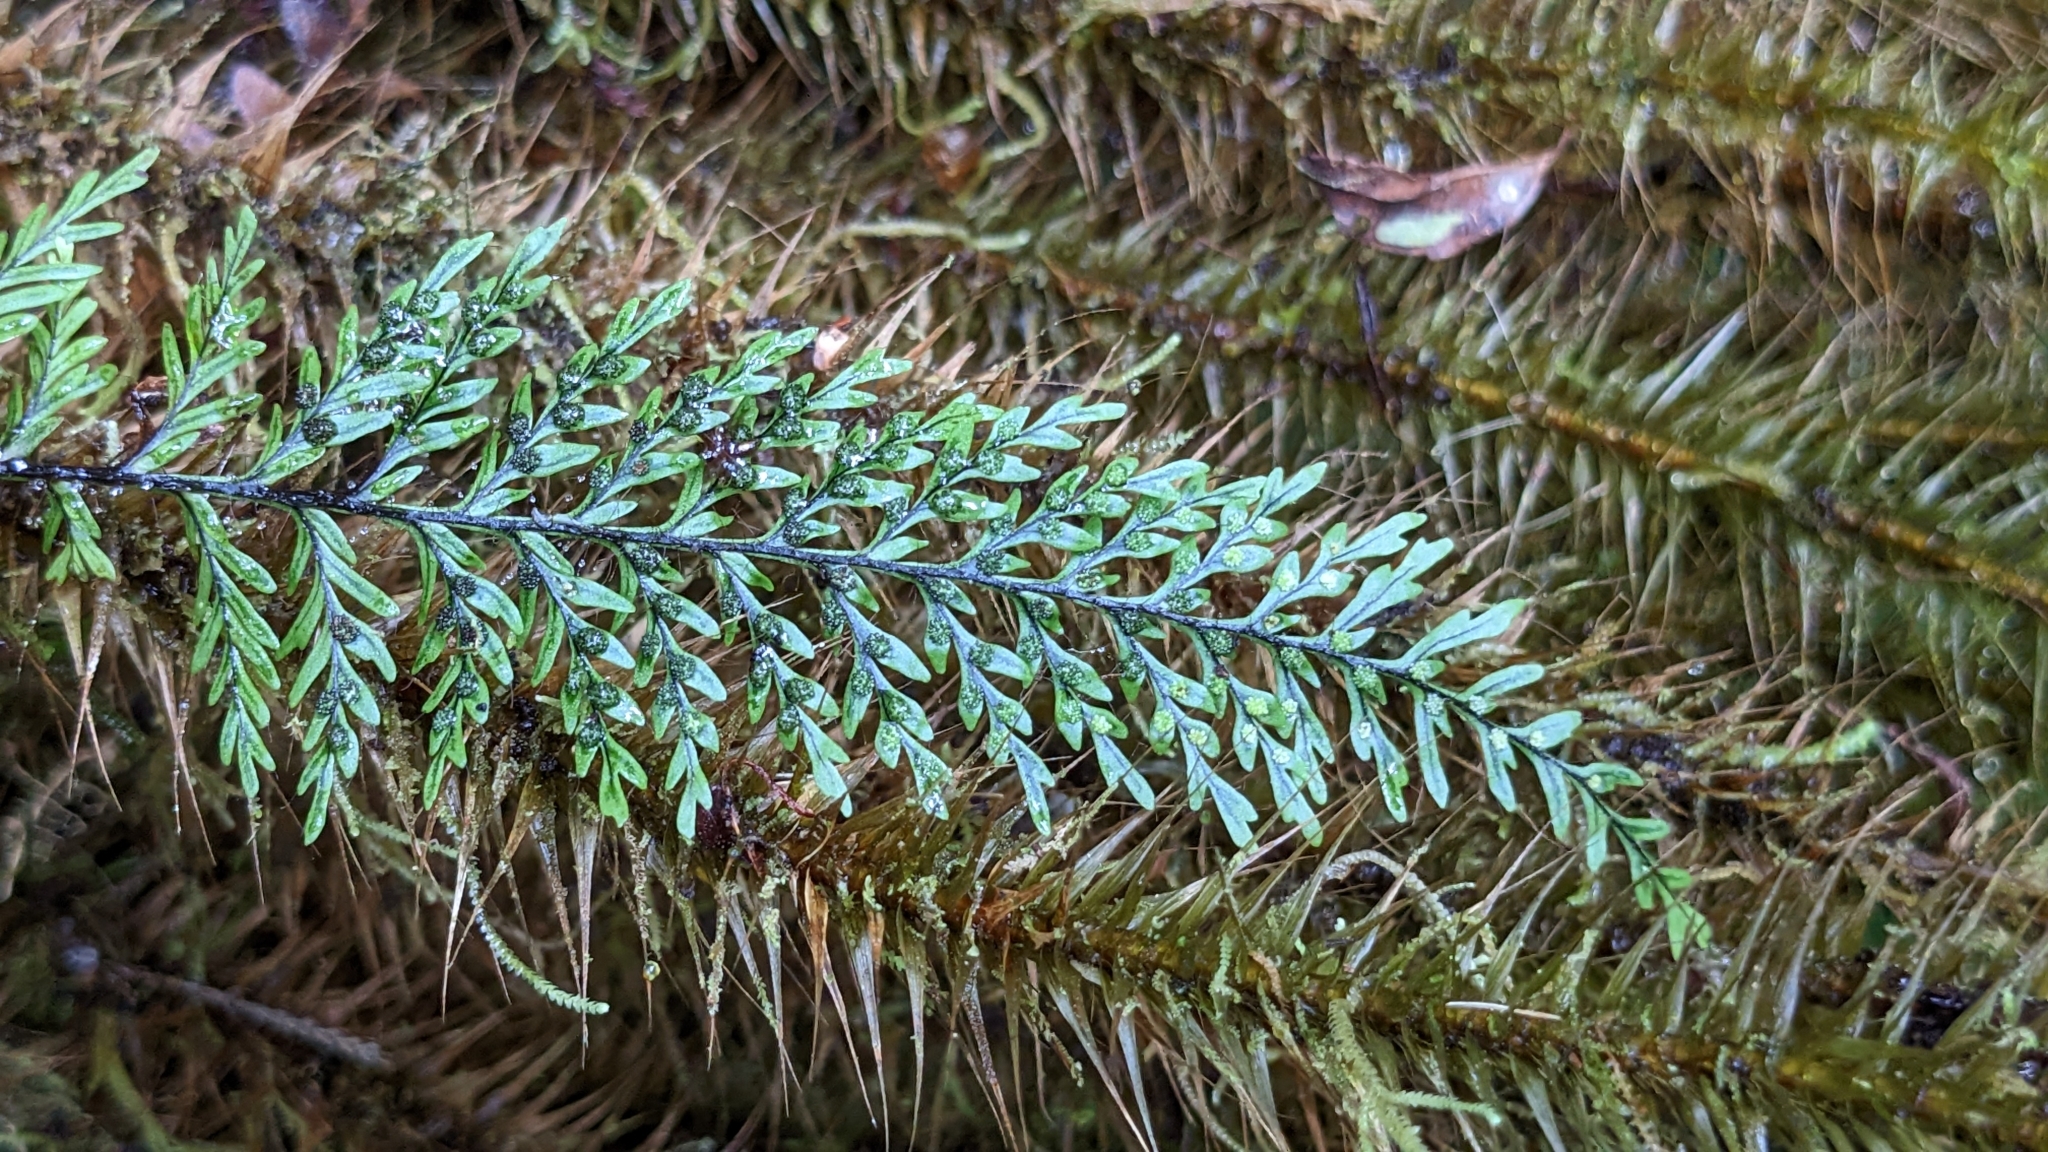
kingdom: Plantae
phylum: Tracheophyta
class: Polypodiopsida
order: Polypodiales
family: Polypodiaceae
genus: Oreogrammitis
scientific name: Oreogrammitis tenuisecta
